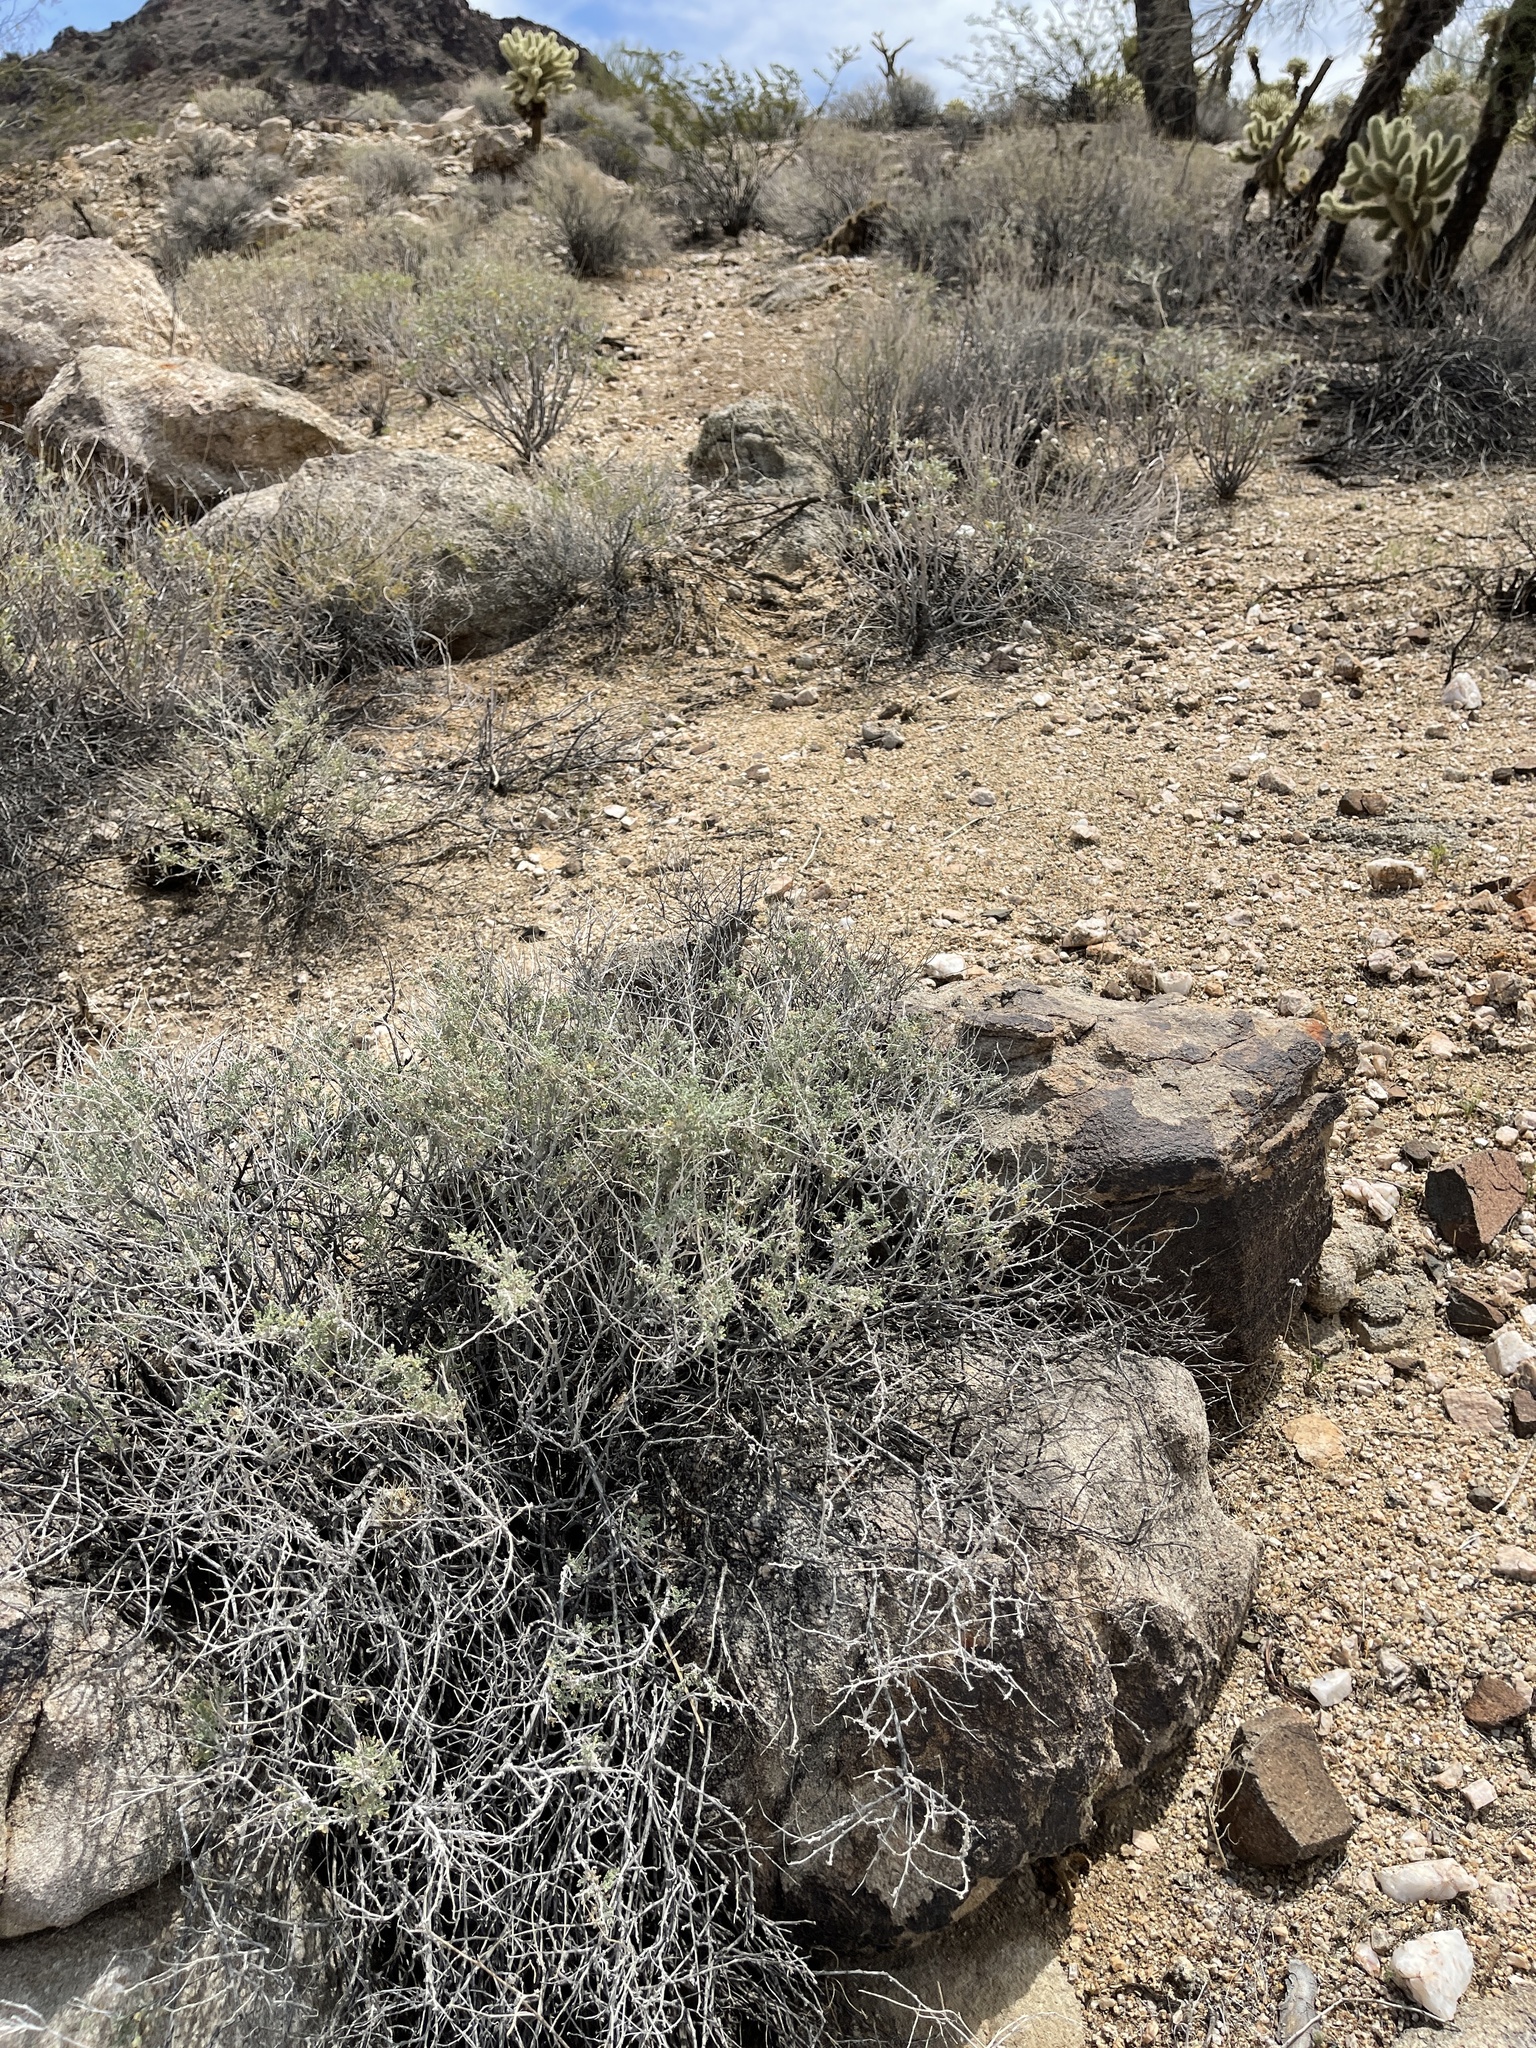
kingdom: Plantae
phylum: Tracheophyta
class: Magnoliopsida
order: Asterales
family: Asteraceae
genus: Ambrosia
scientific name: Ambrosia dumosa
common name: Bur-sage
